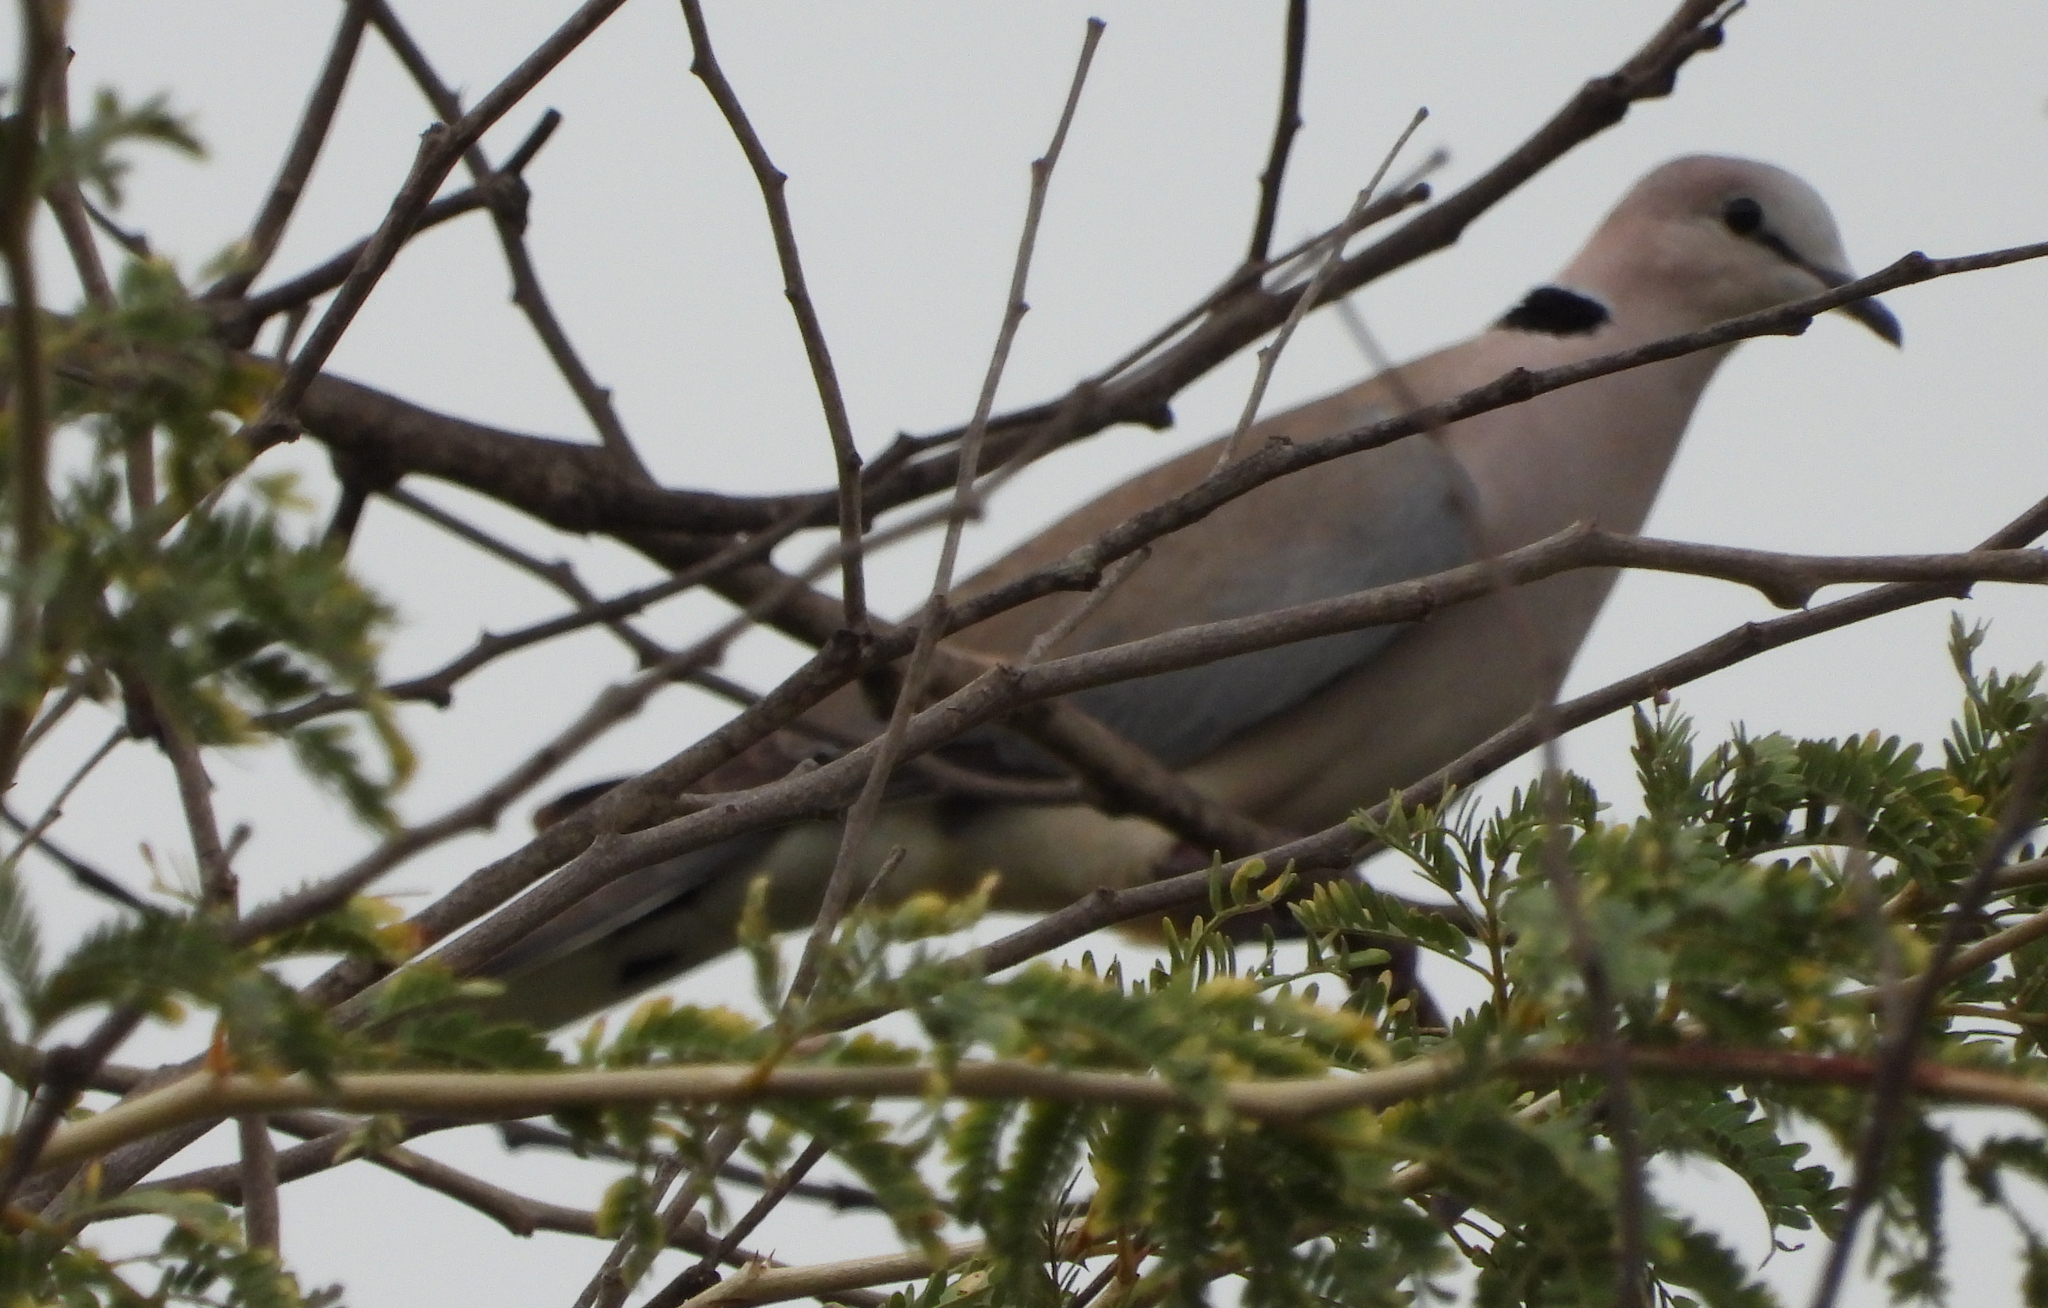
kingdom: Animalia
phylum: Chordata
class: Aves
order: Columbiformes
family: Columbidae
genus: Streptopelia
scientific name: Streptopelia capicola
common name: Ring-necked dove
